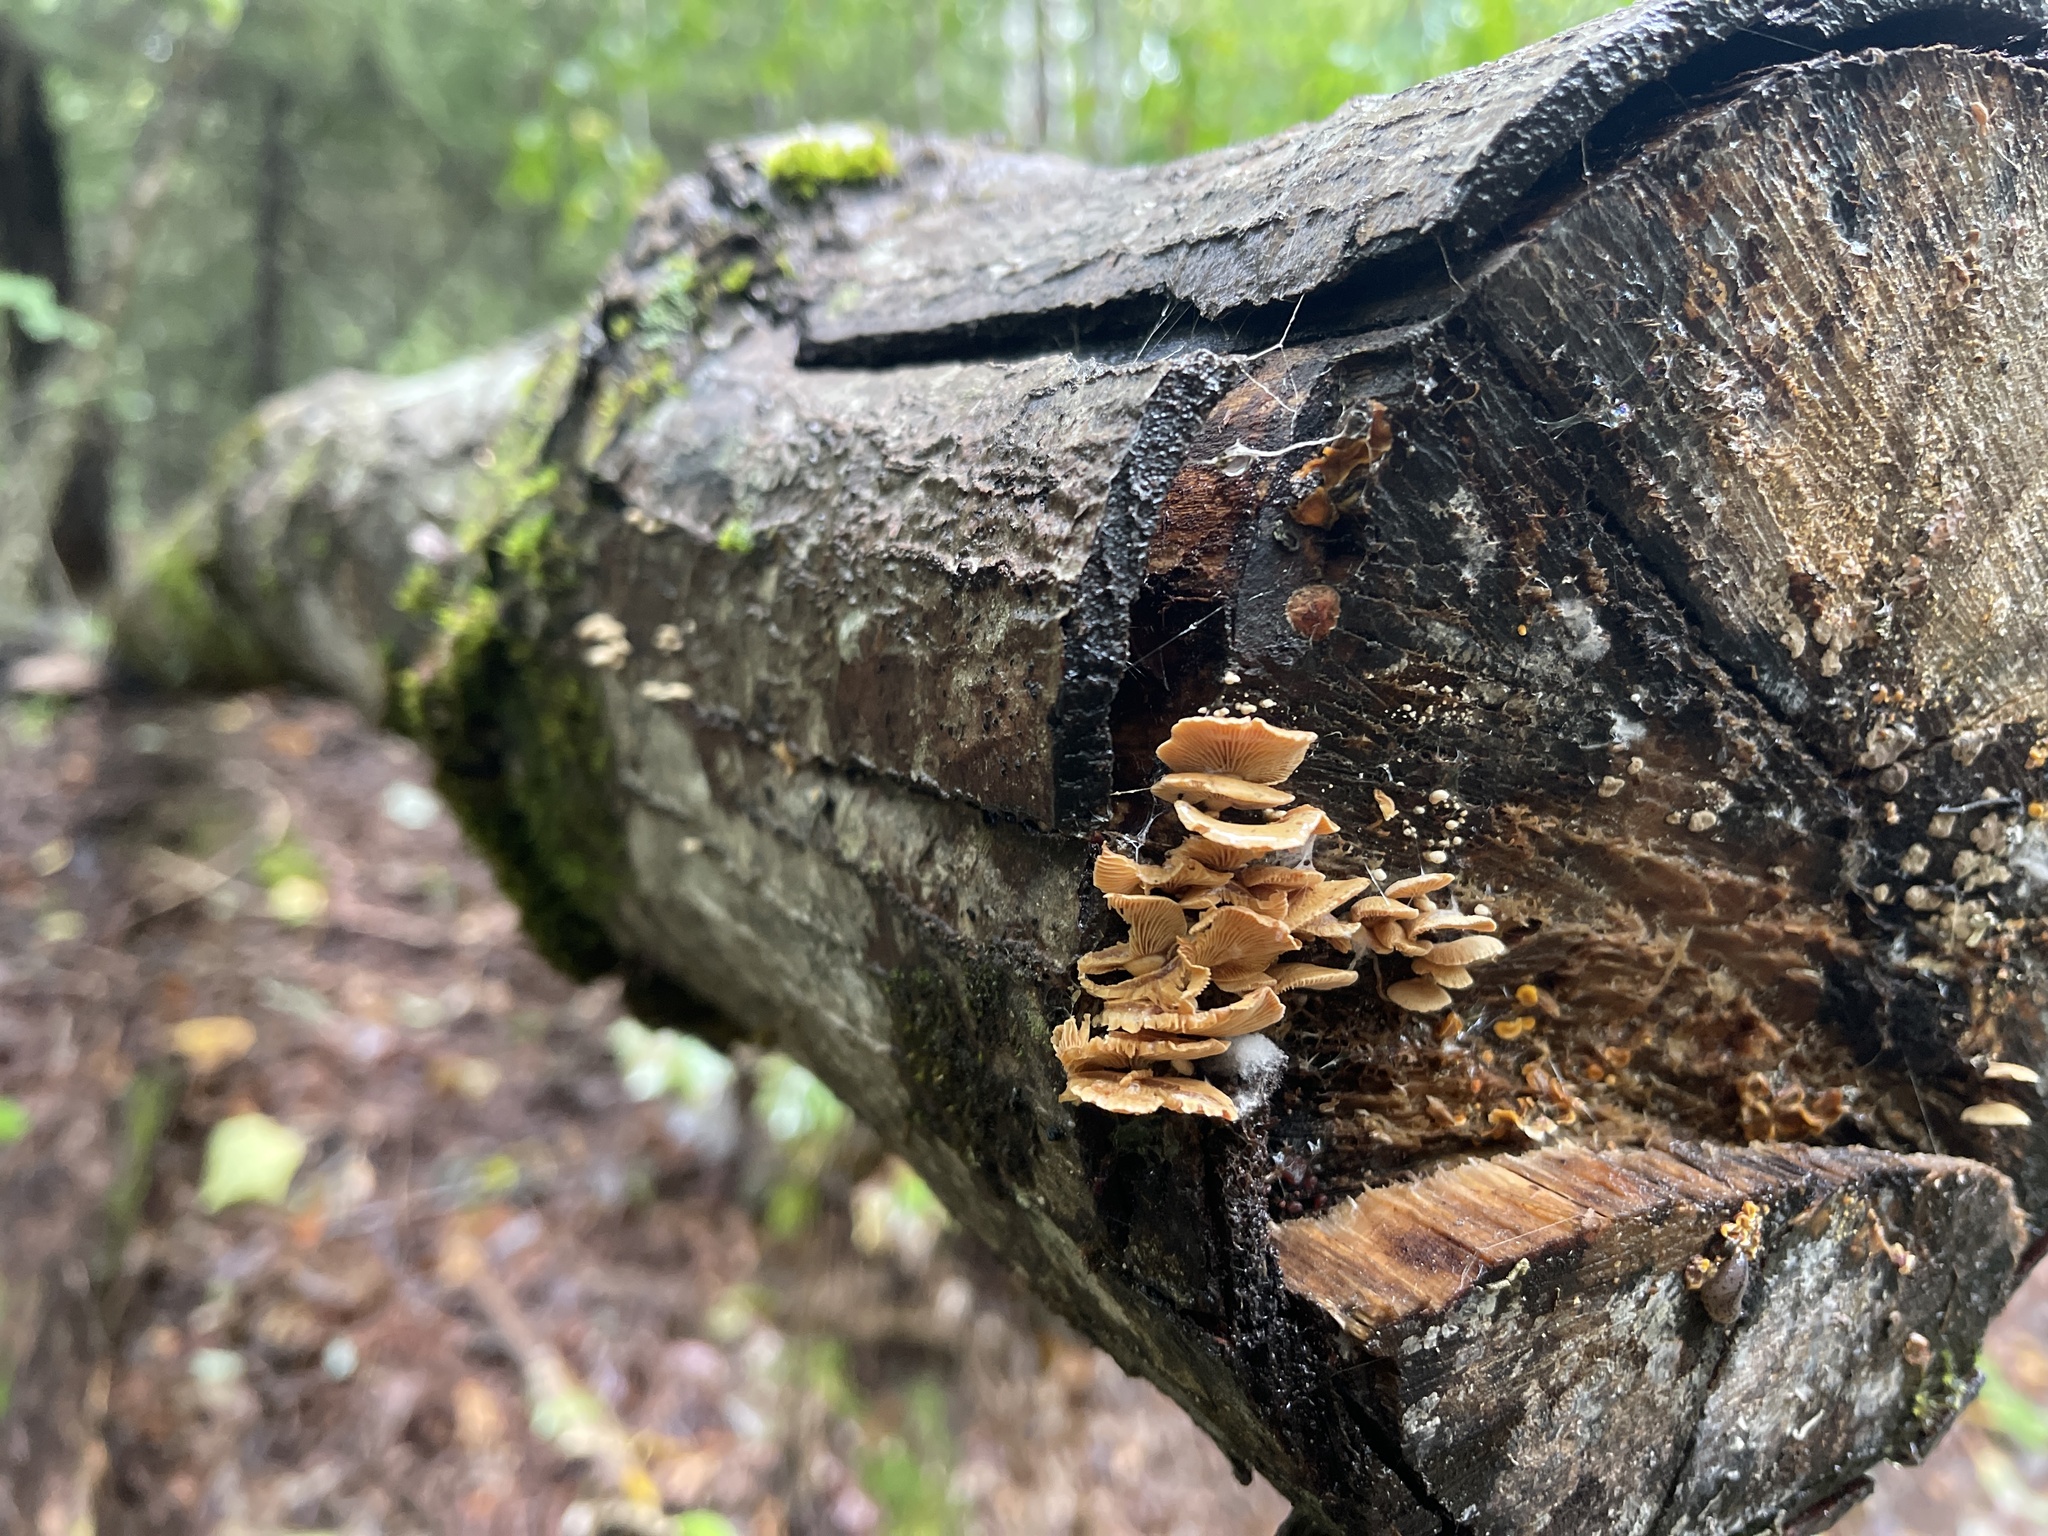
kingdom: Fungi
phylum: Basidiomycota
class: Agaricomycetes
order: Agaricales
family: Mycenaceae
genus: Panellus
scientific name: Panellus stipticus
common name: Bitter oysterling
